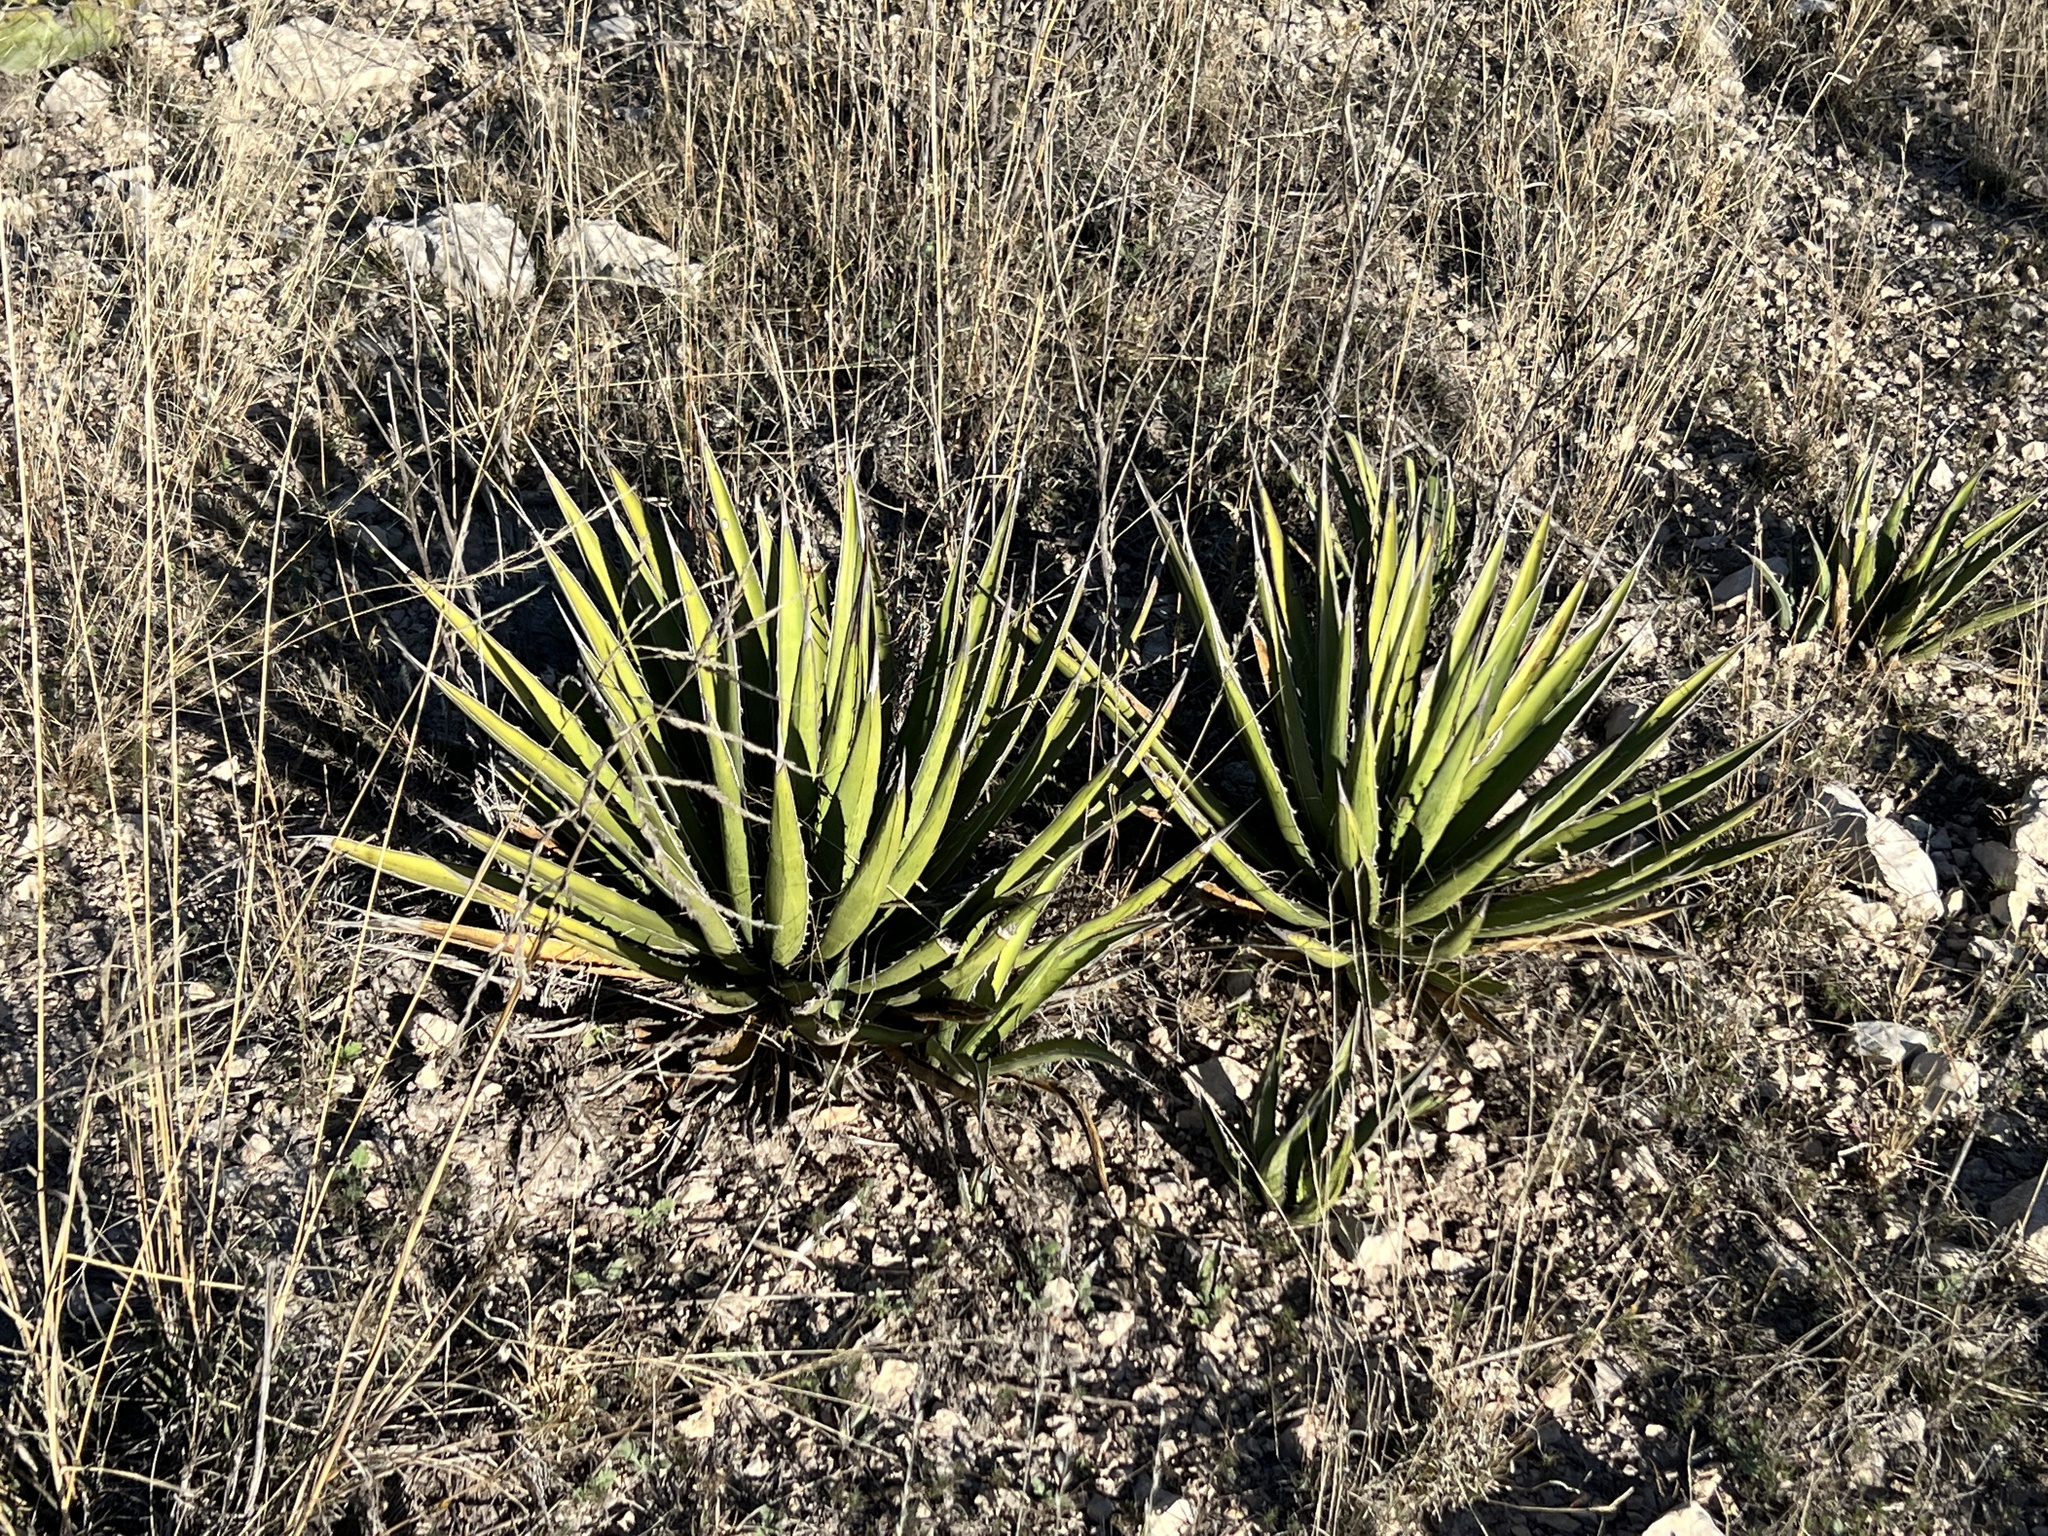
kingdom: Plantae
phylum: Tracheophyta
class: Liliopsida
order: Asparagales
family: Asparagaceae
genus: Agave
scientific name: Agave lechuguilla
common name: Lecheguilla agave
